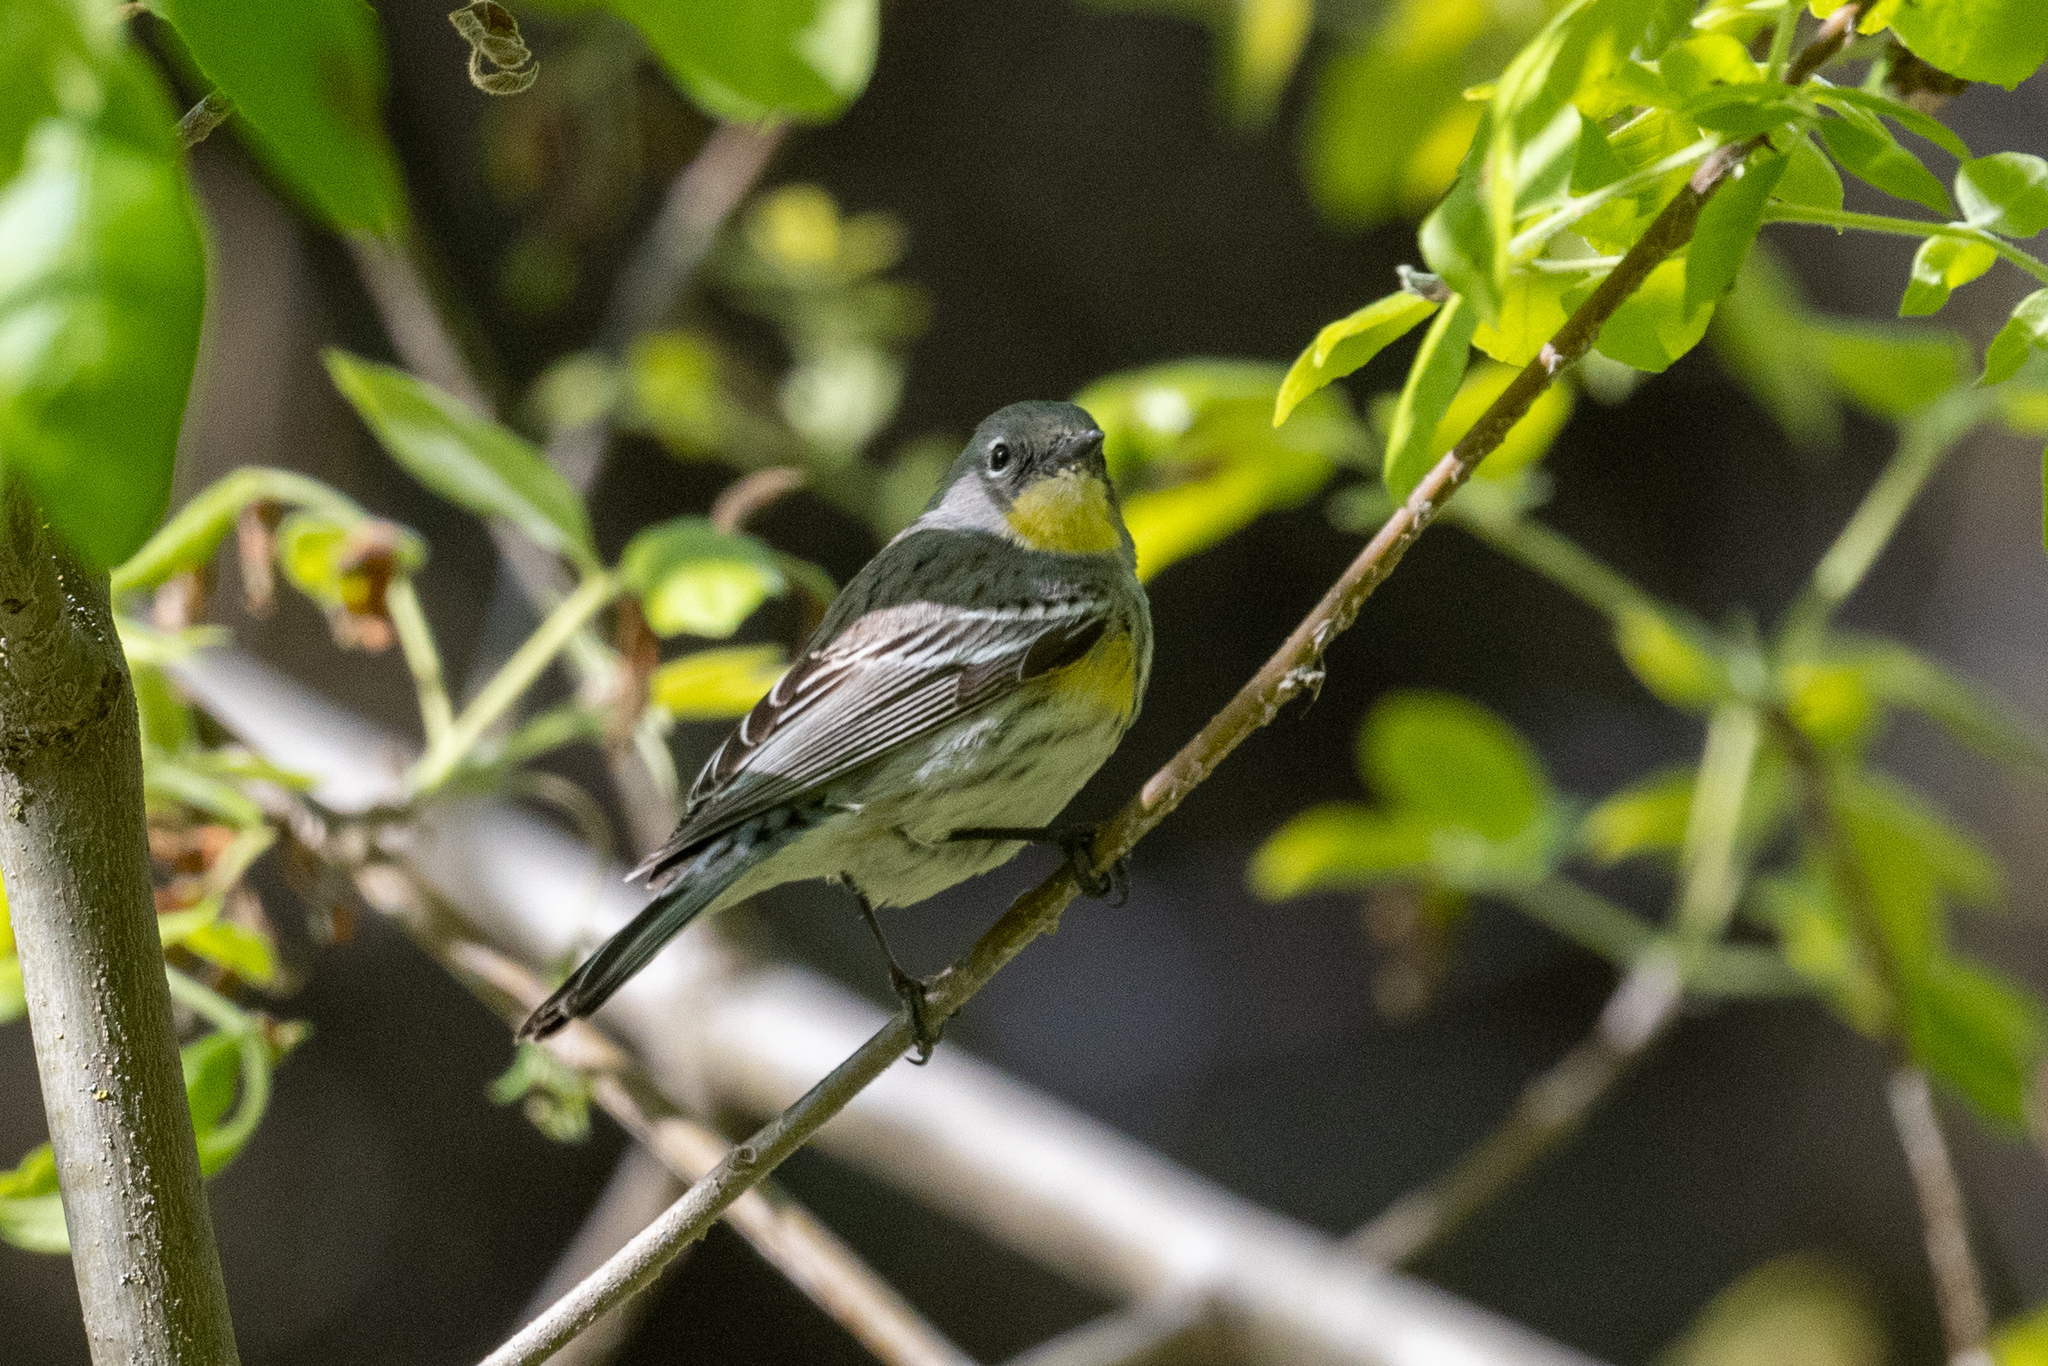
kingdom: Animalia
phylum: Chordata
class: Aves
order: Passeriformes
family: Parulidae
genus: Setophaga
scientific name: Setophaga coronata
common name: Myrtle warbler
